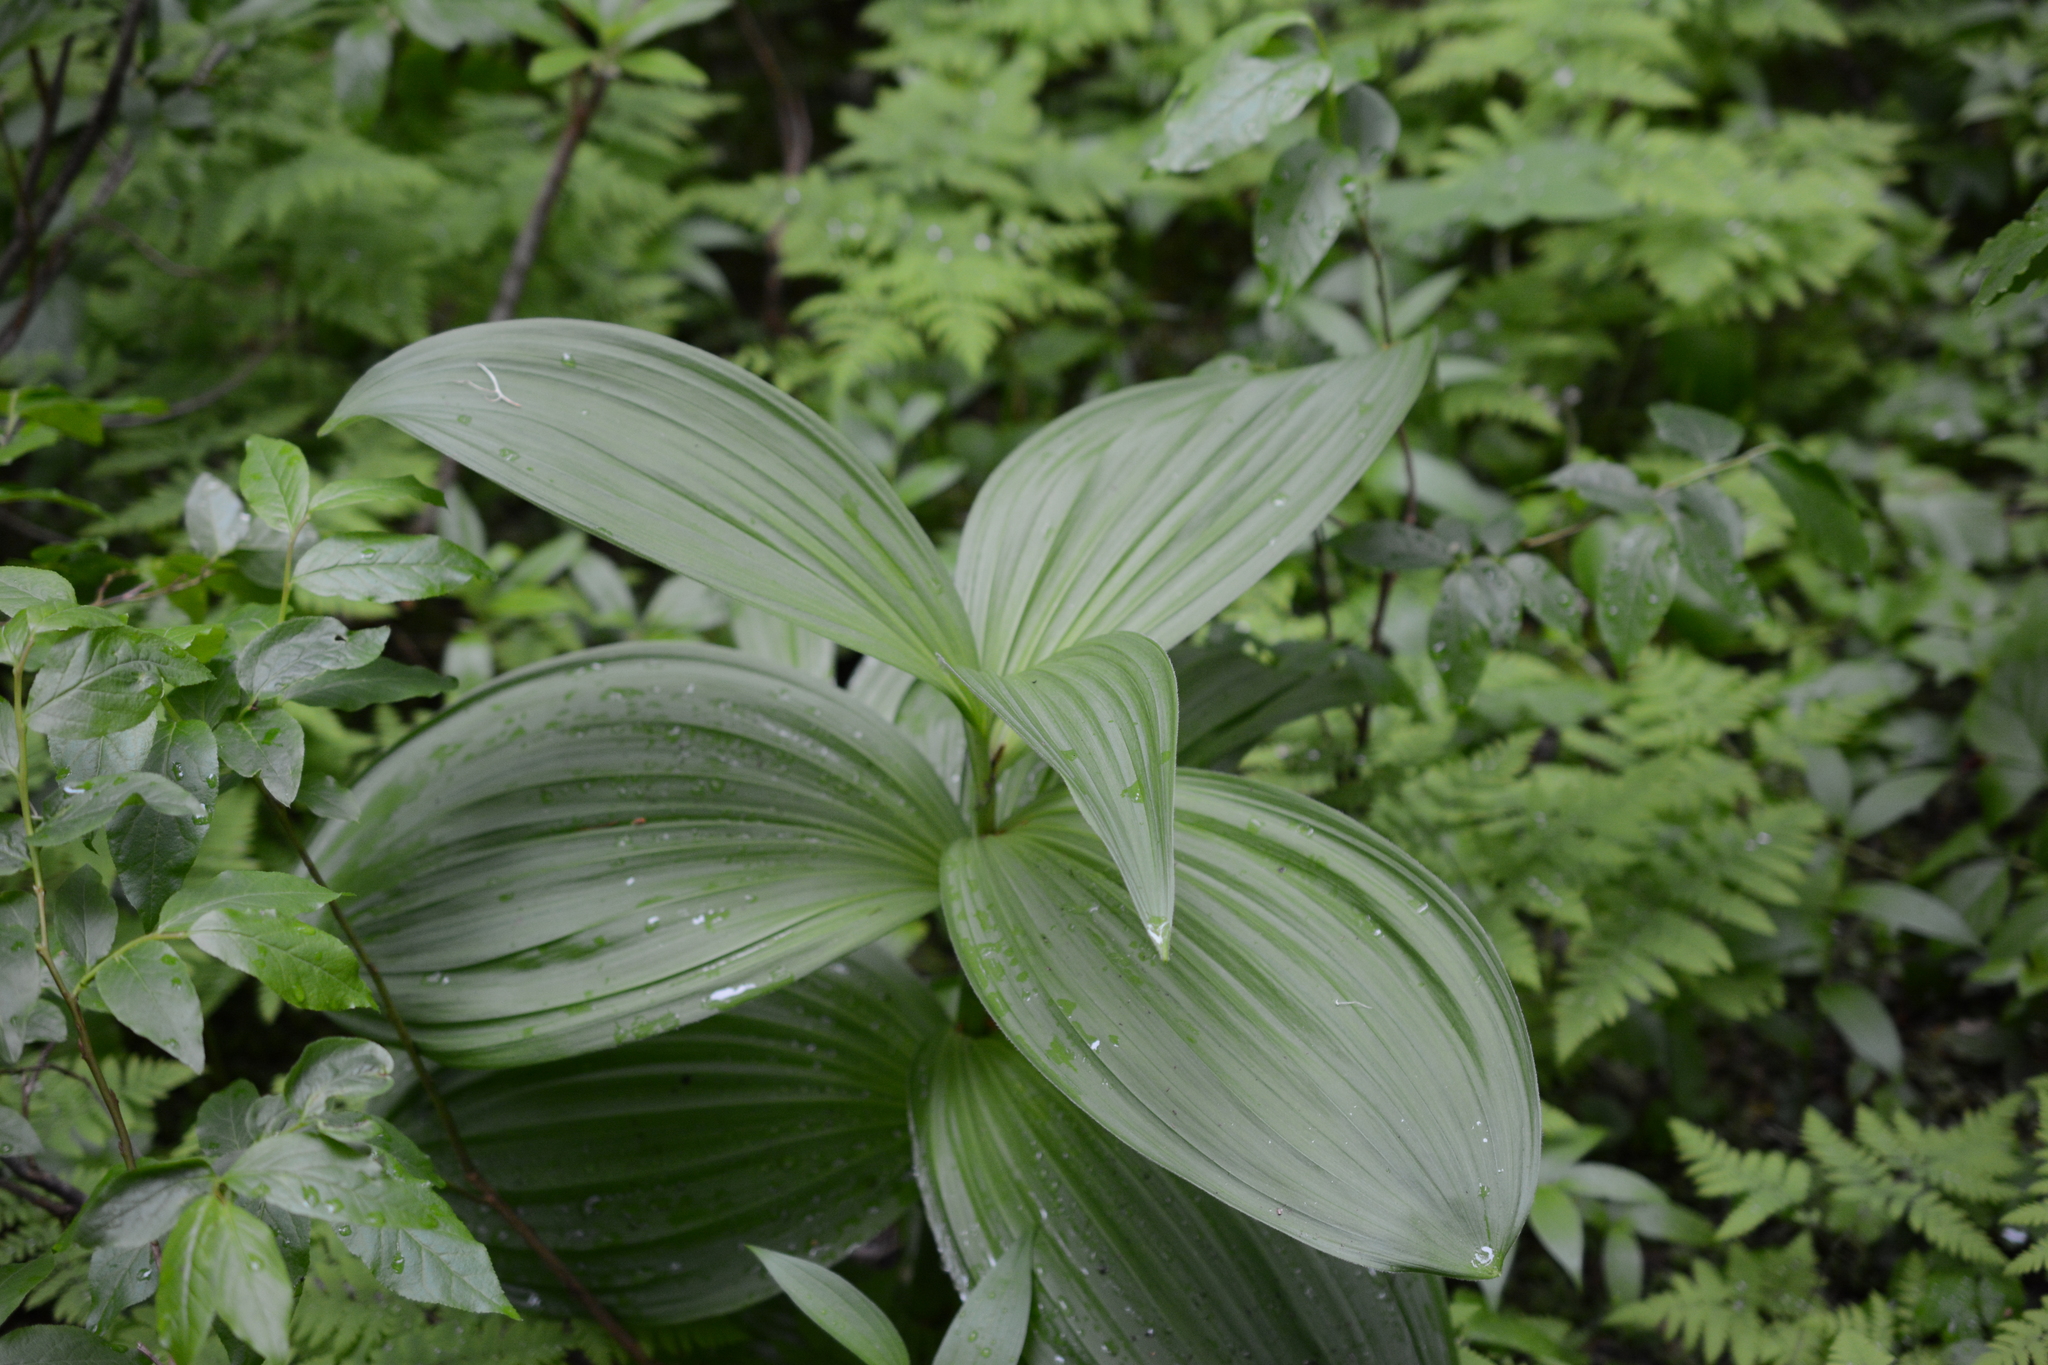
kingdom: Plantae
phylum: Tracheophyta
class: Liliopsida
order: Liliales
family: Melanthiaceae
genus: Veratrum
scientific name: Veratrum viride
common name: American false hellebore
